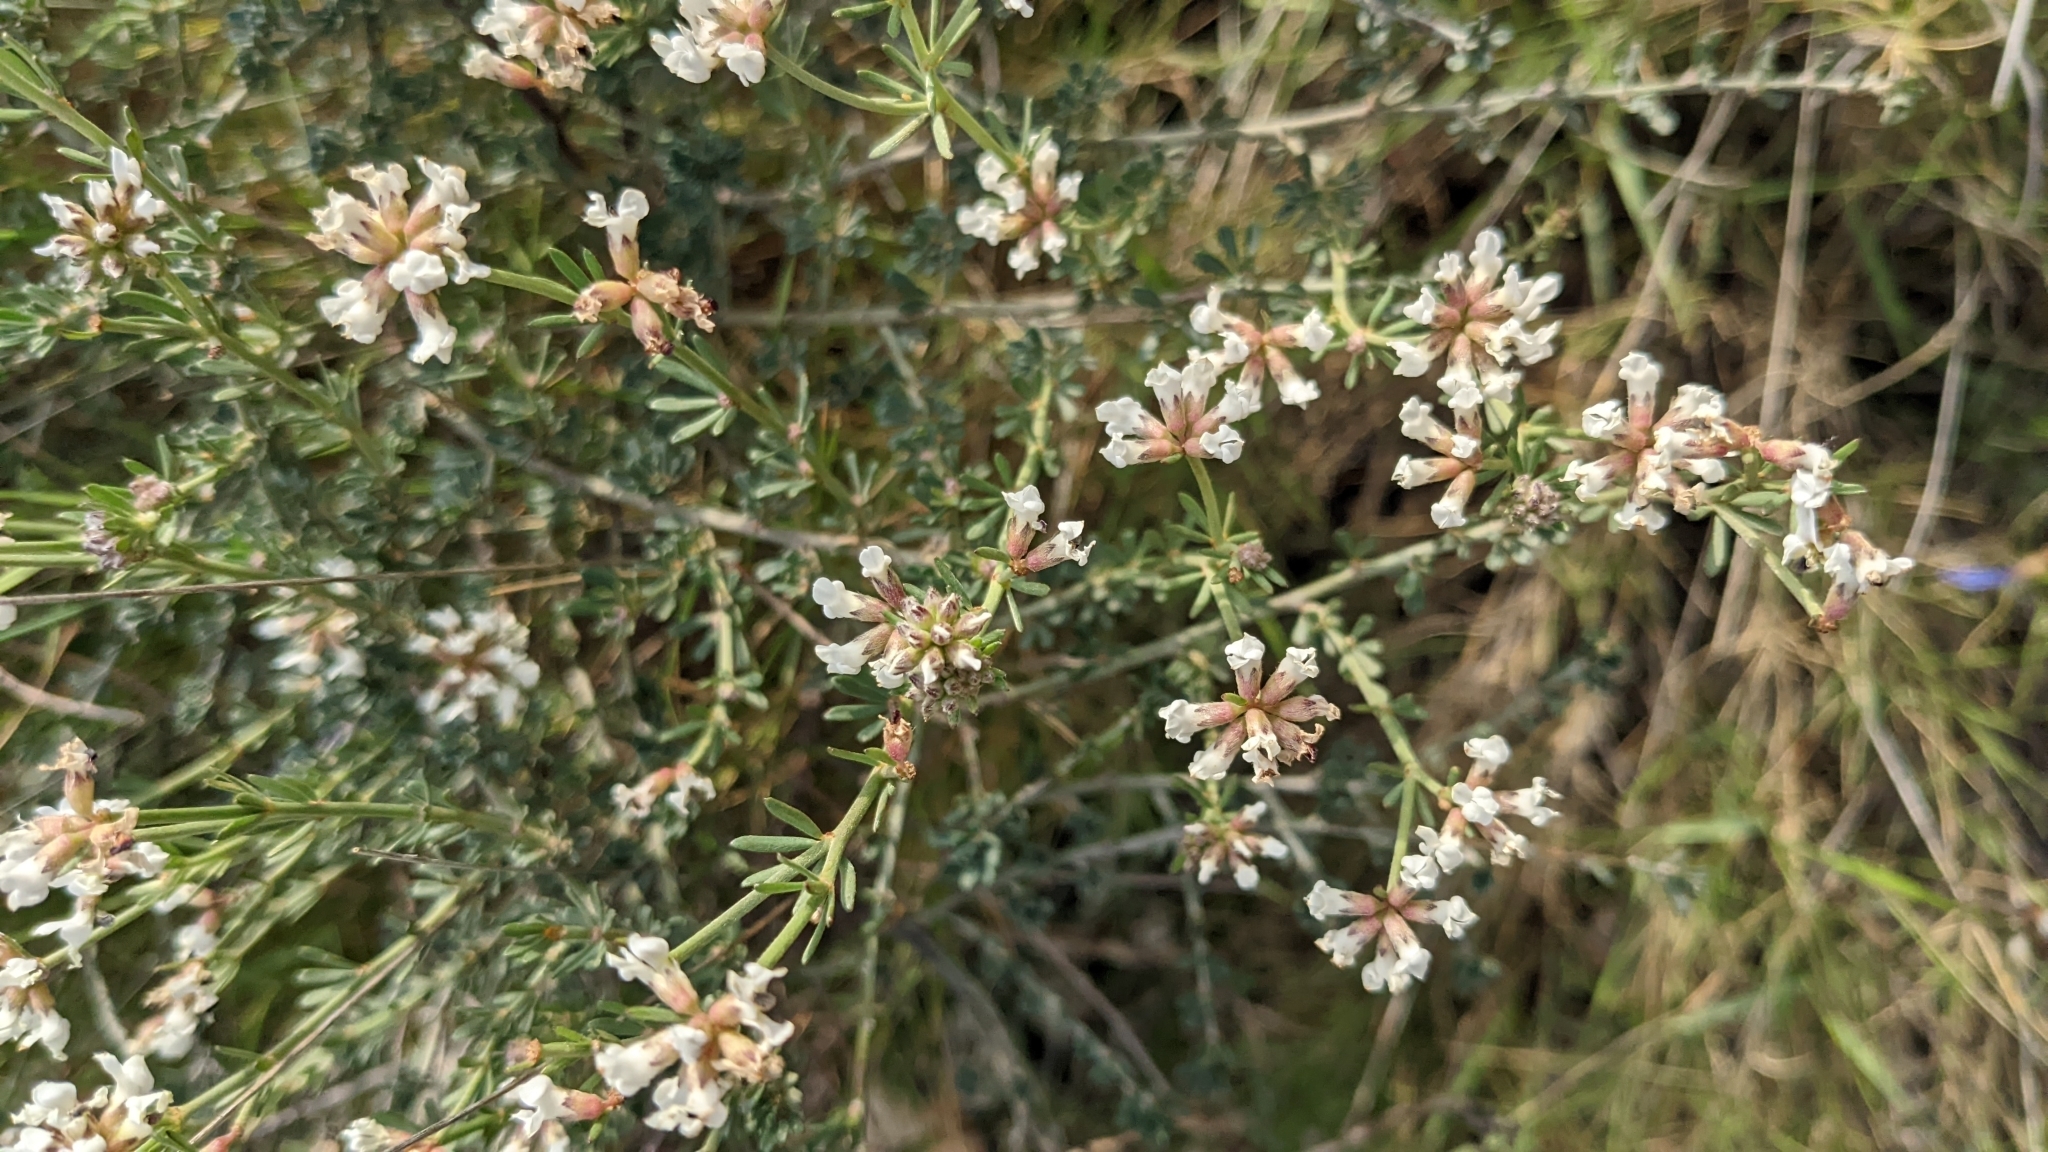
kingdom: Plantae
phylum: Tracheophyta
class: Magnoliopsida
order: Fabales
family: Fabaceae
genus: Lotus
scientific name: Lotus dorycnium
